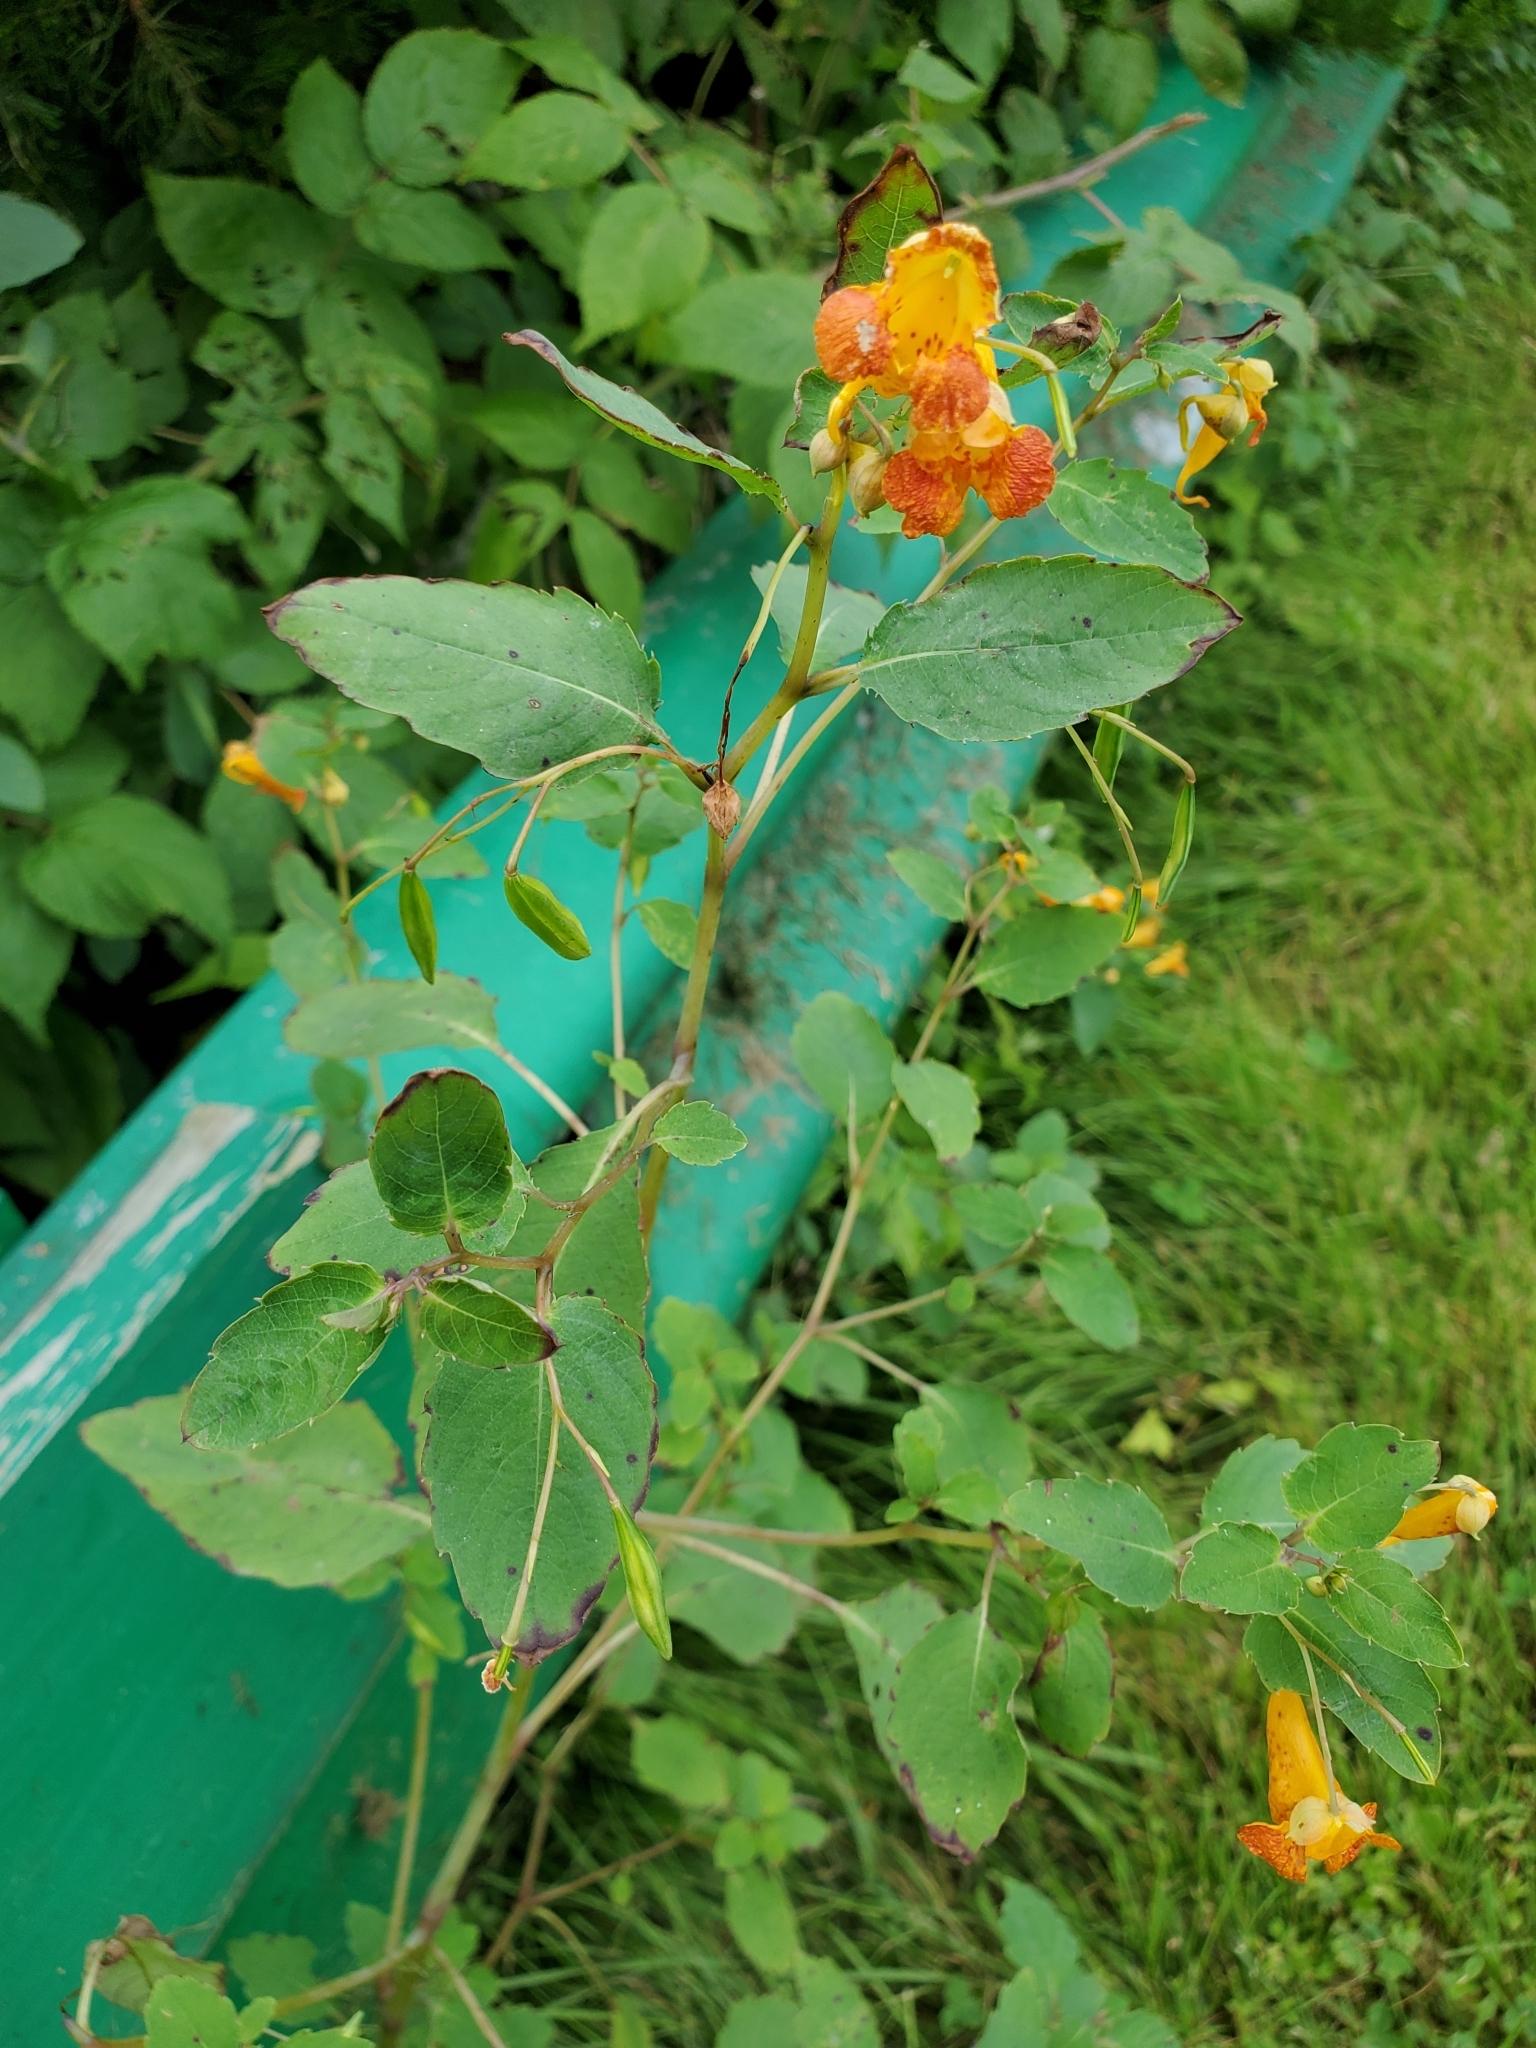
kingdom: Plantae
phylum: Tracheophyta
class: Magnoliopsida
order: Ericales
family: Balsaminaceae
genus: Impatiens
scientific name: Impatiens capensis
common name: Orange balsam
